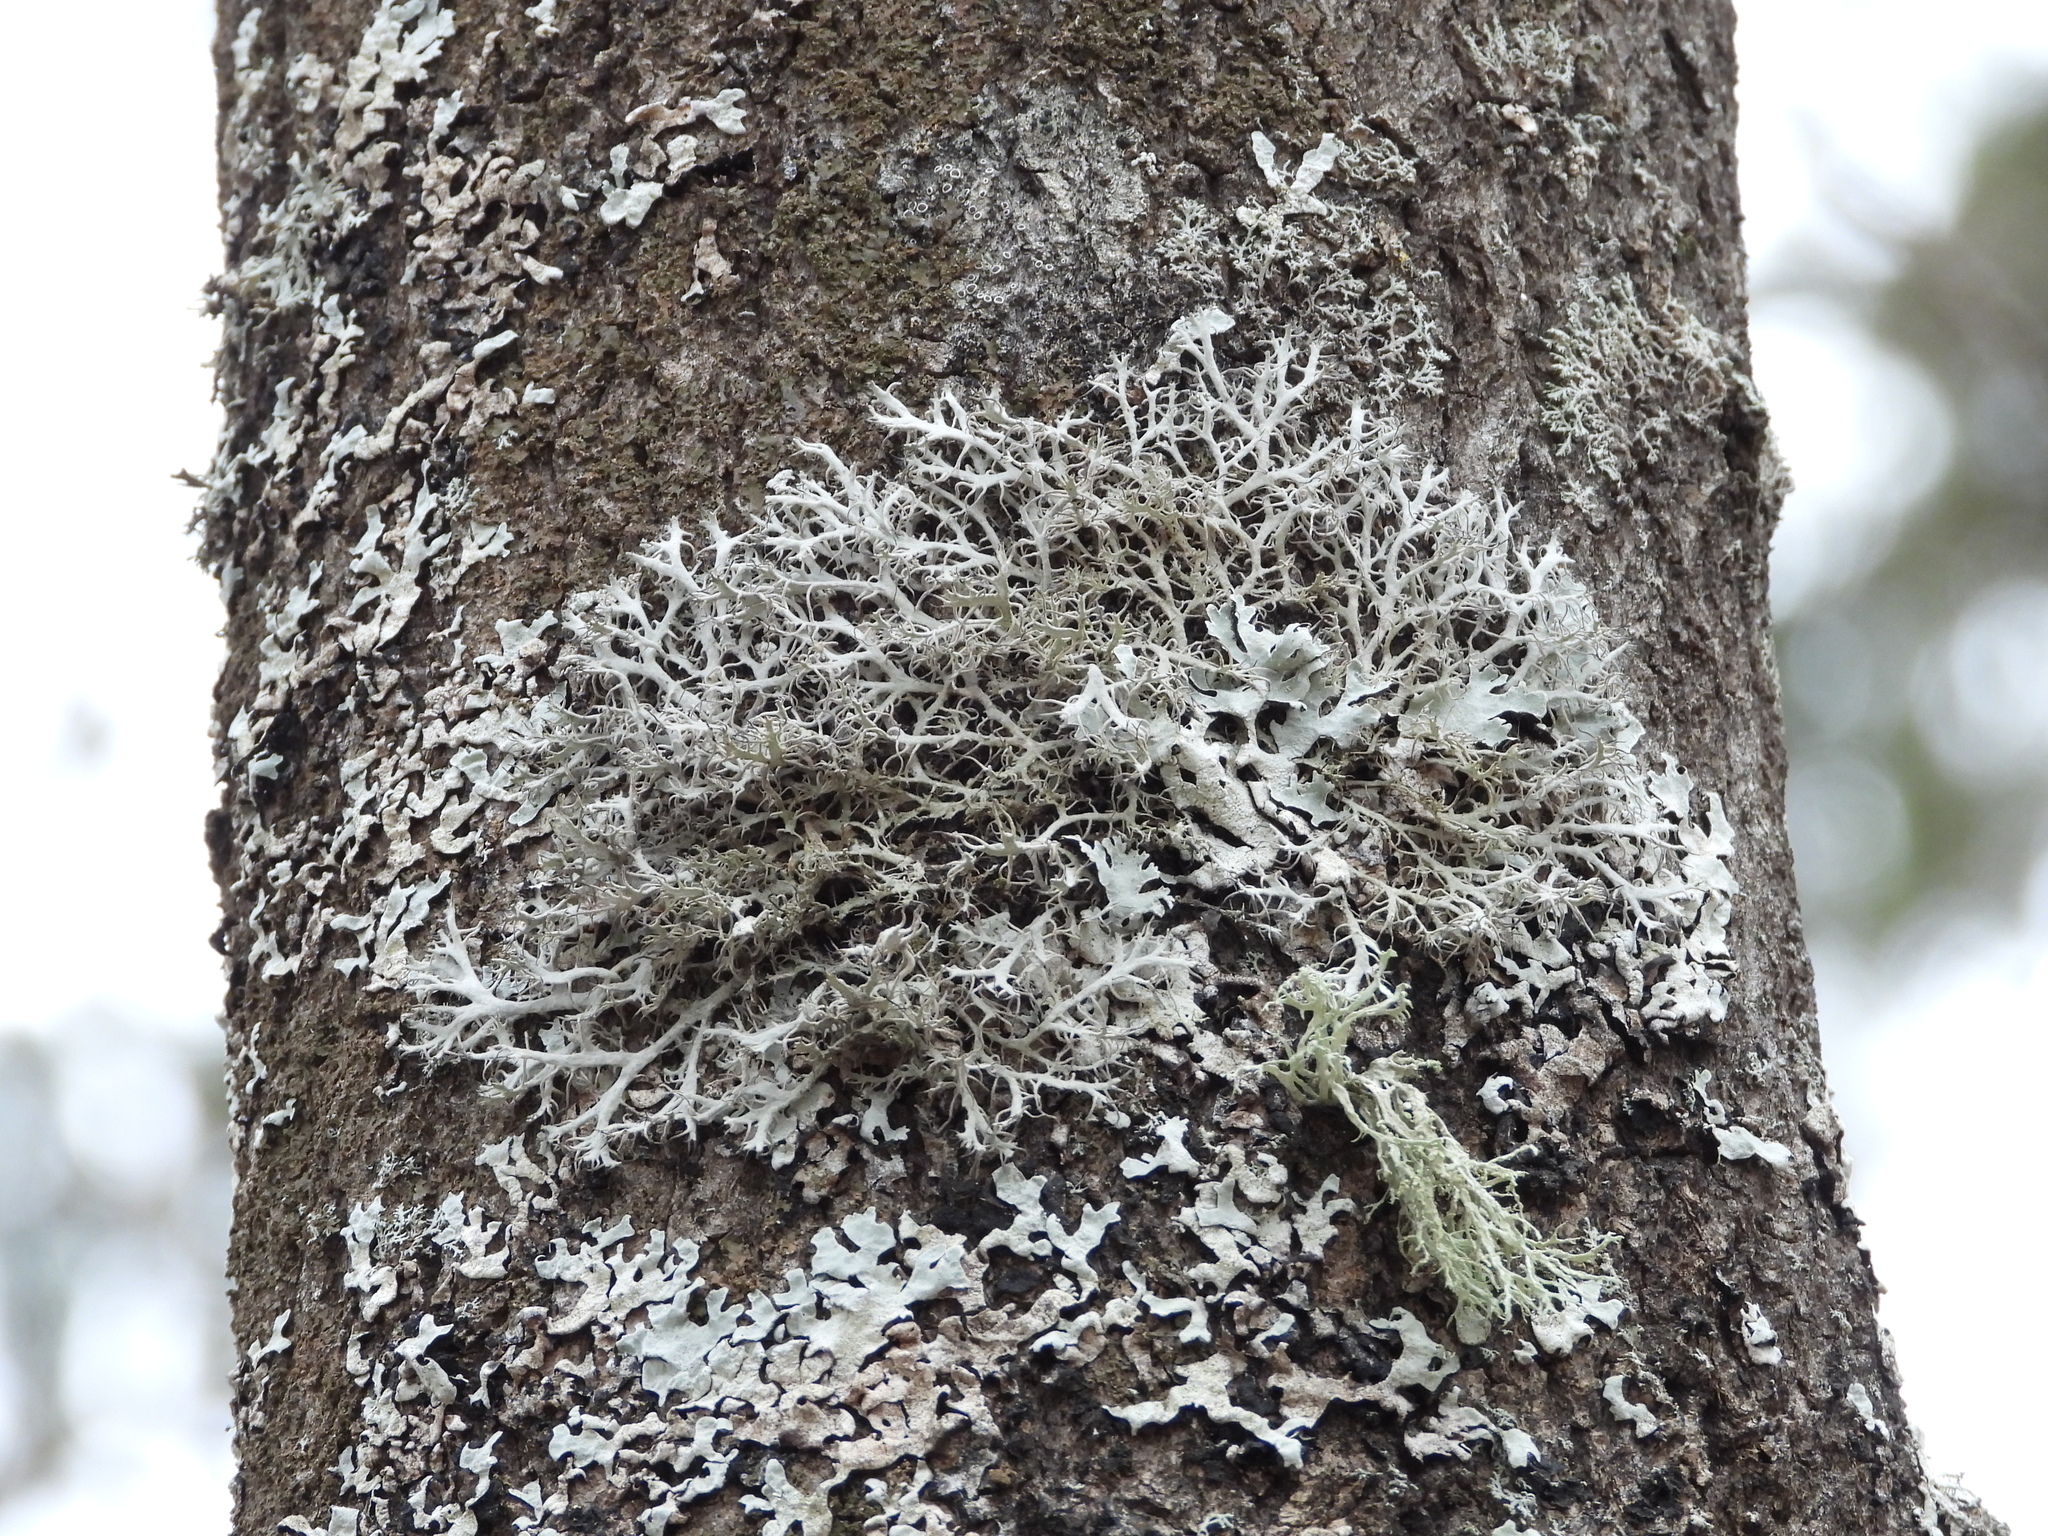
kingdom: Fungi
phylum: Ascomycota
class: Lecanoromycetes
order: Caliciales
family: Physciaceae
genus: Anaptychia
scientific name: Anaptychia ciliaris
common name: Great ciliated lichen
